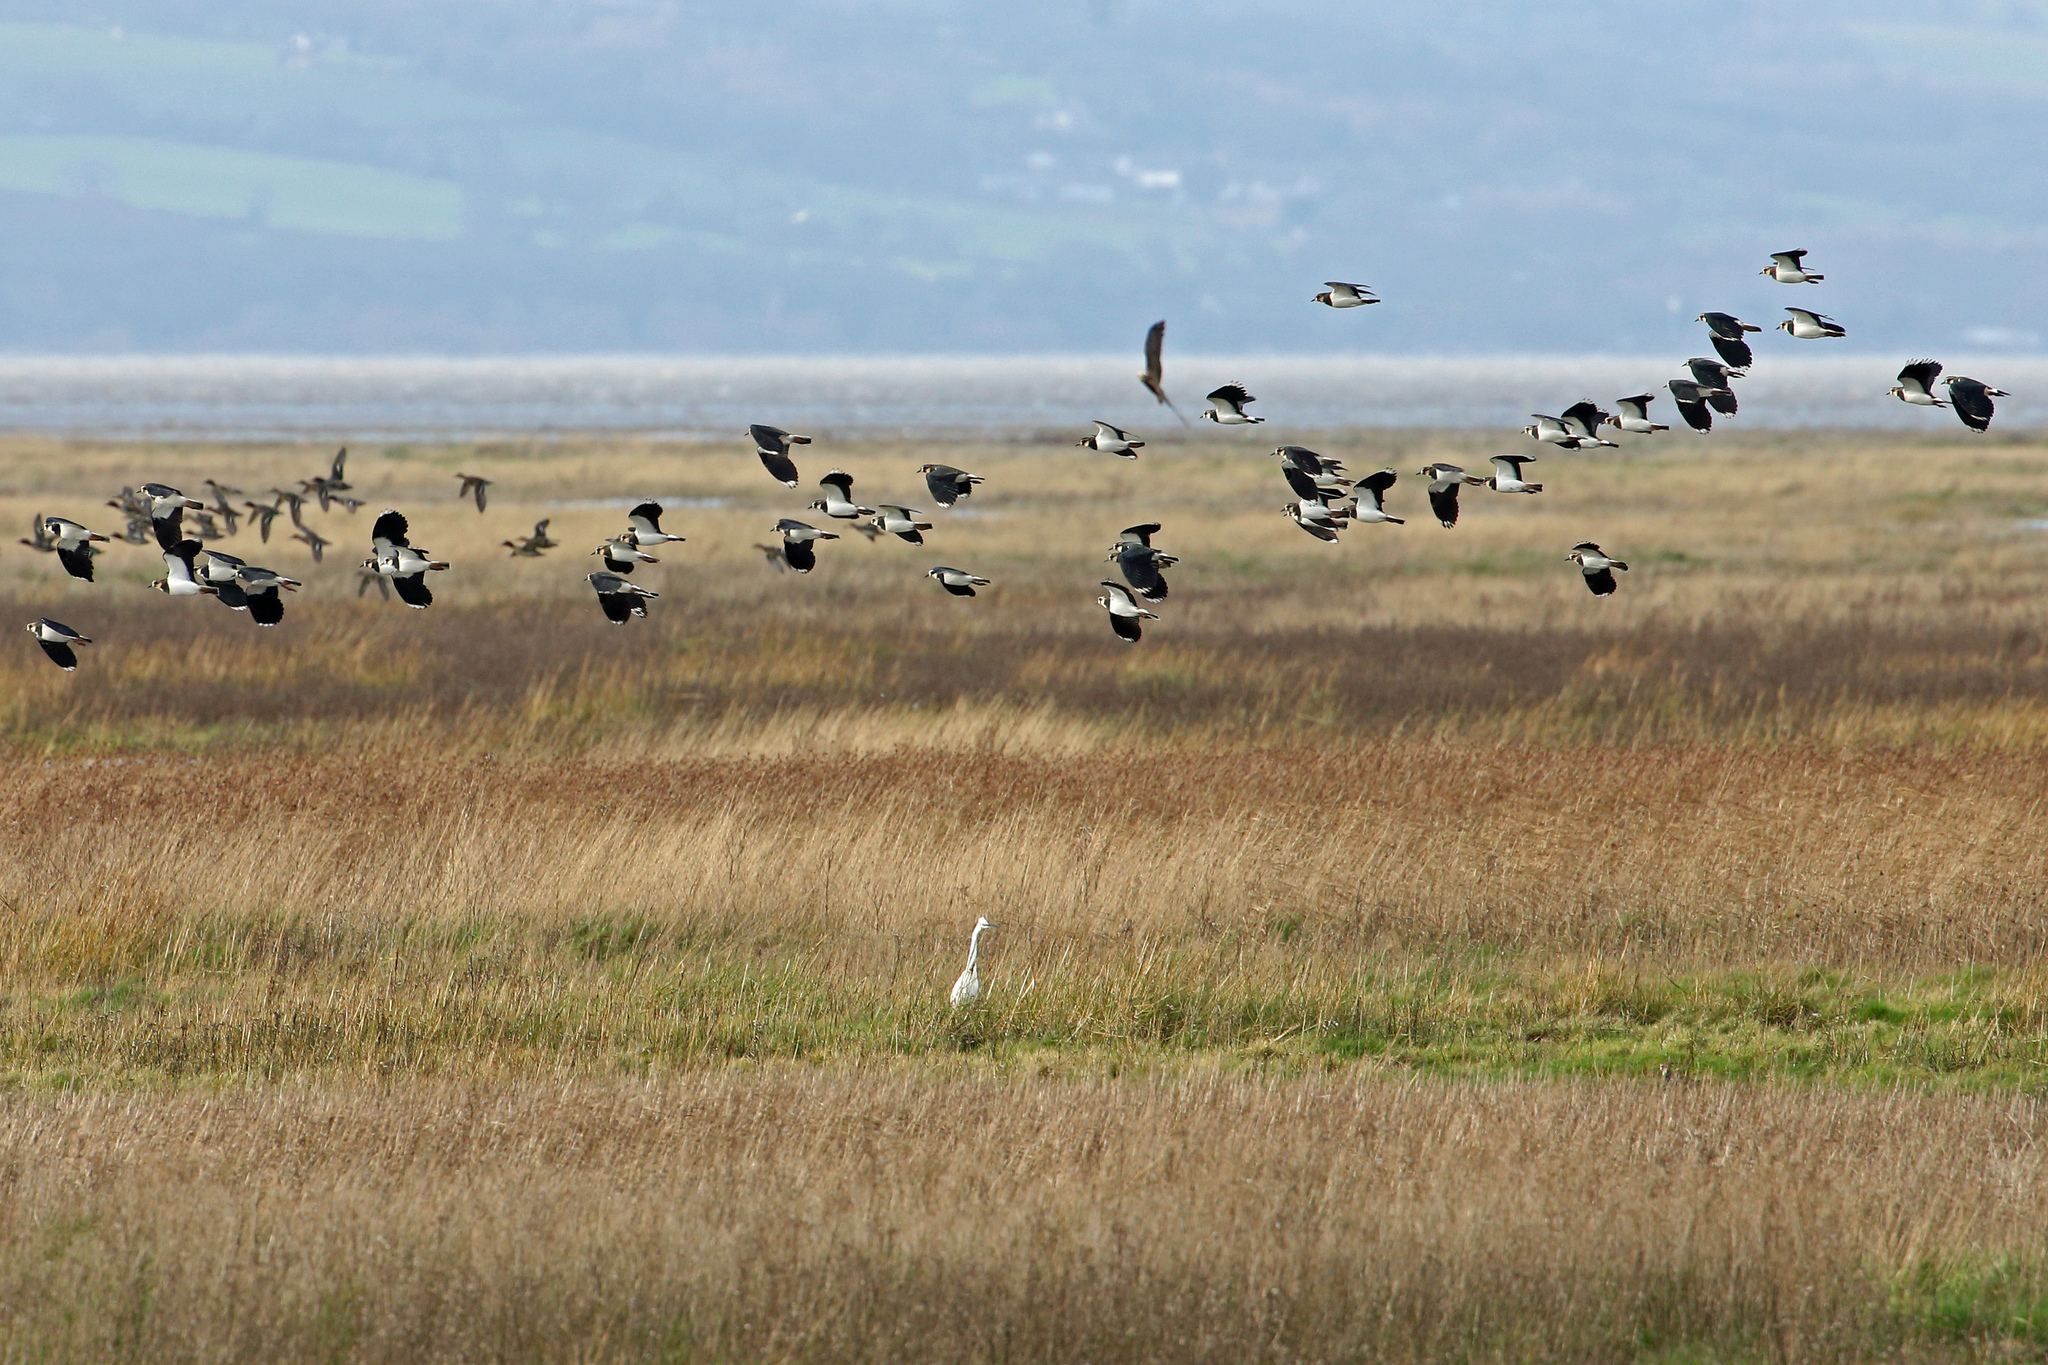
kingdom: Animalia
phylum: Chordata
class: Aves
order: Charadriiformes
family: Charadriidae
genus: Vanellus
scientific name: Vanellus vanellus
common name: Northern lapwing
